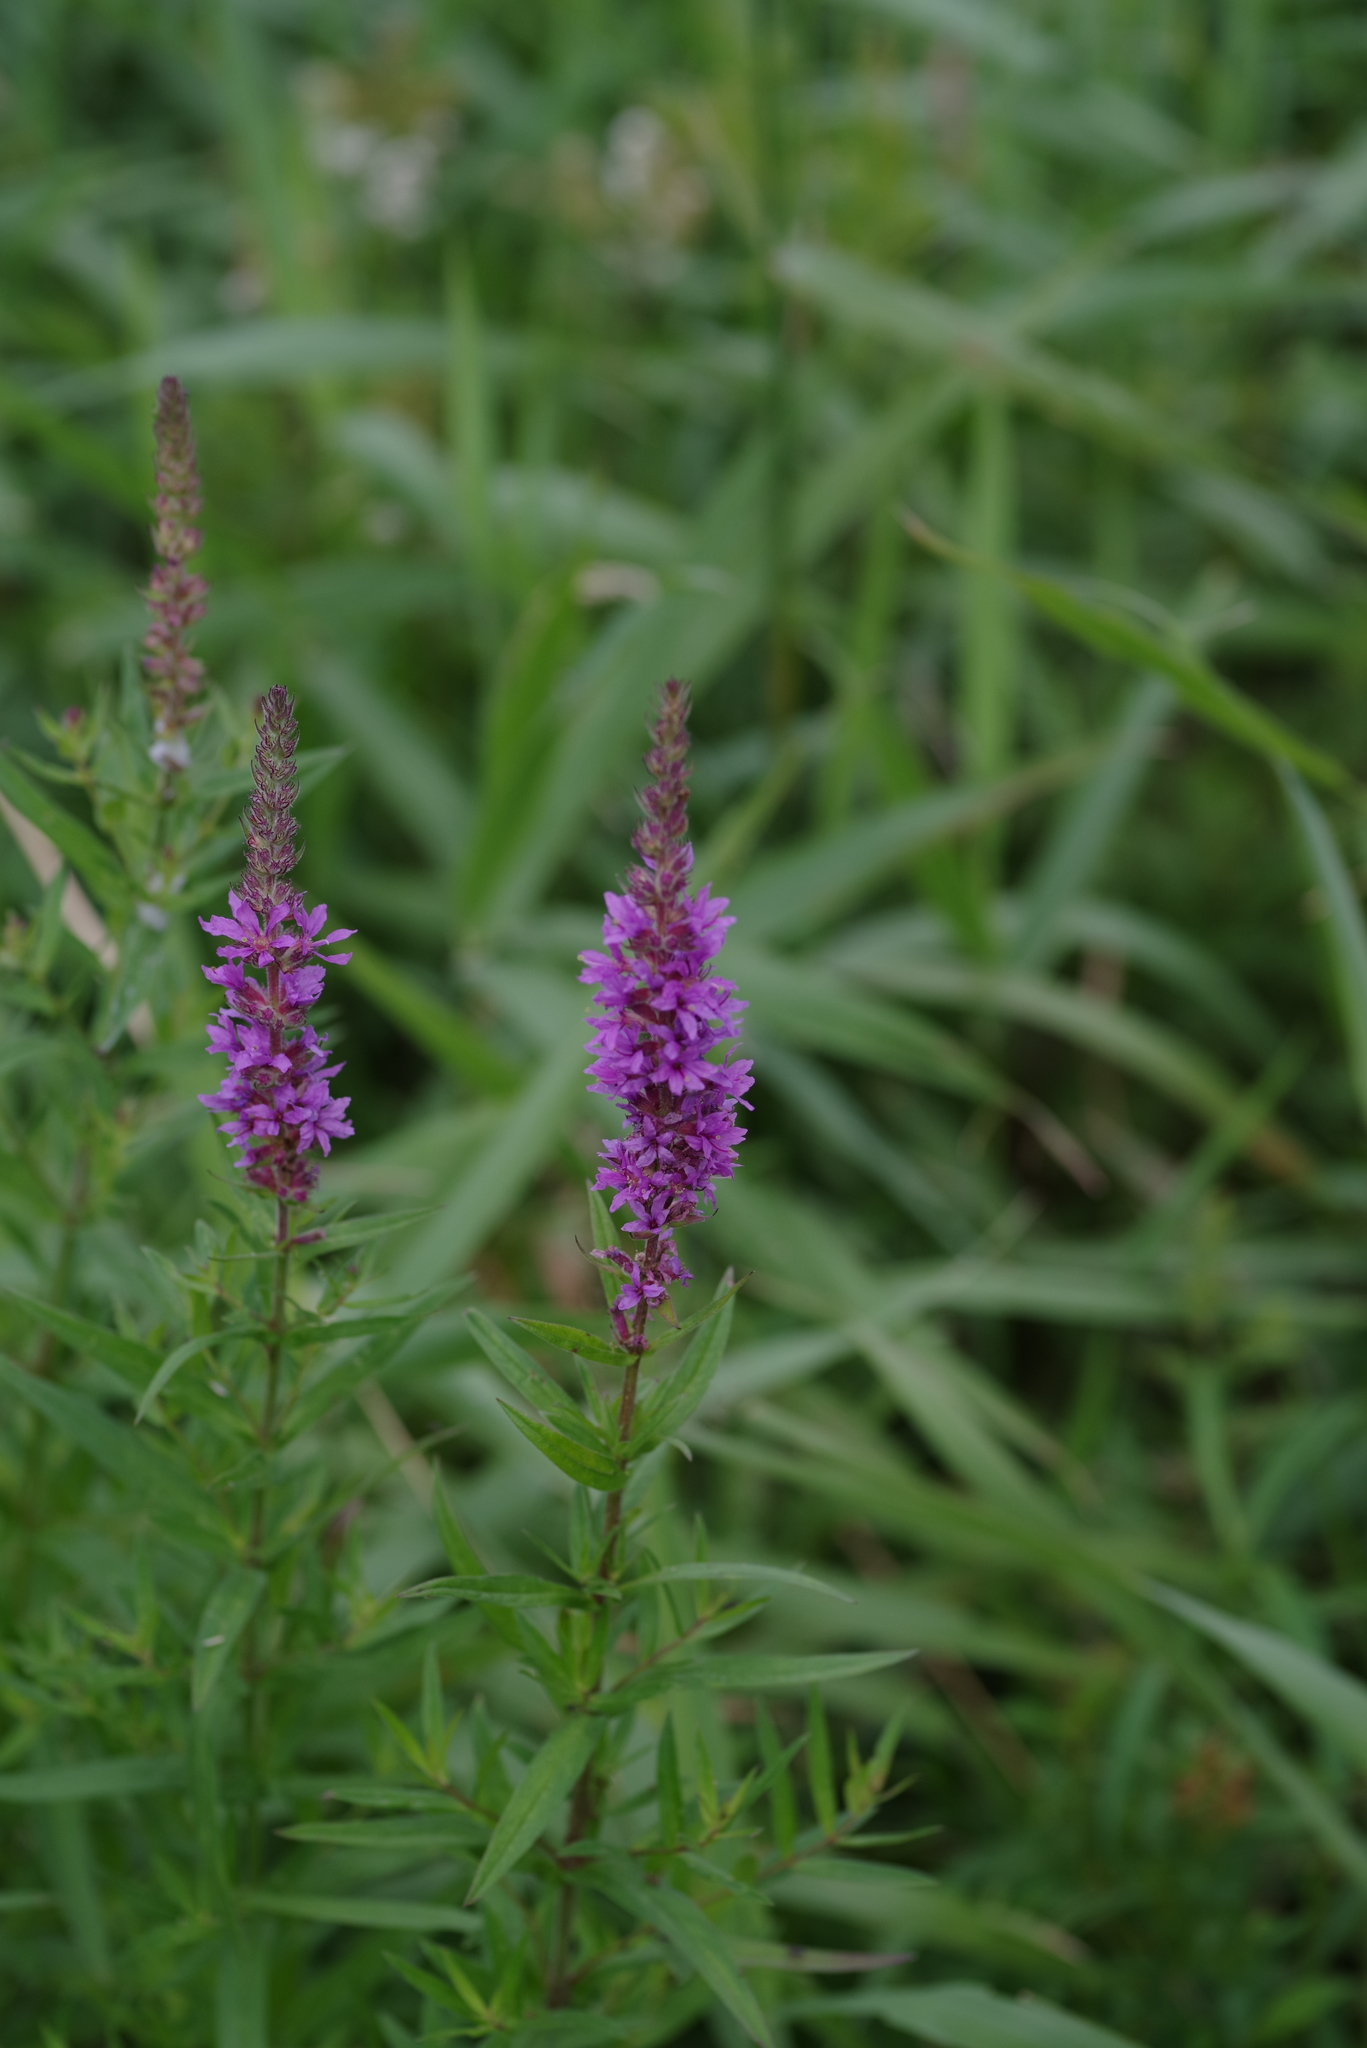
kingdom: Plantae
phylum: Tracheophyta
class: Magnoliopsida
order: Myrtales
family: Lythraceae
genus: Lythrum
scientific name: Lythrum salicaria
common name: Purple loosestrife
